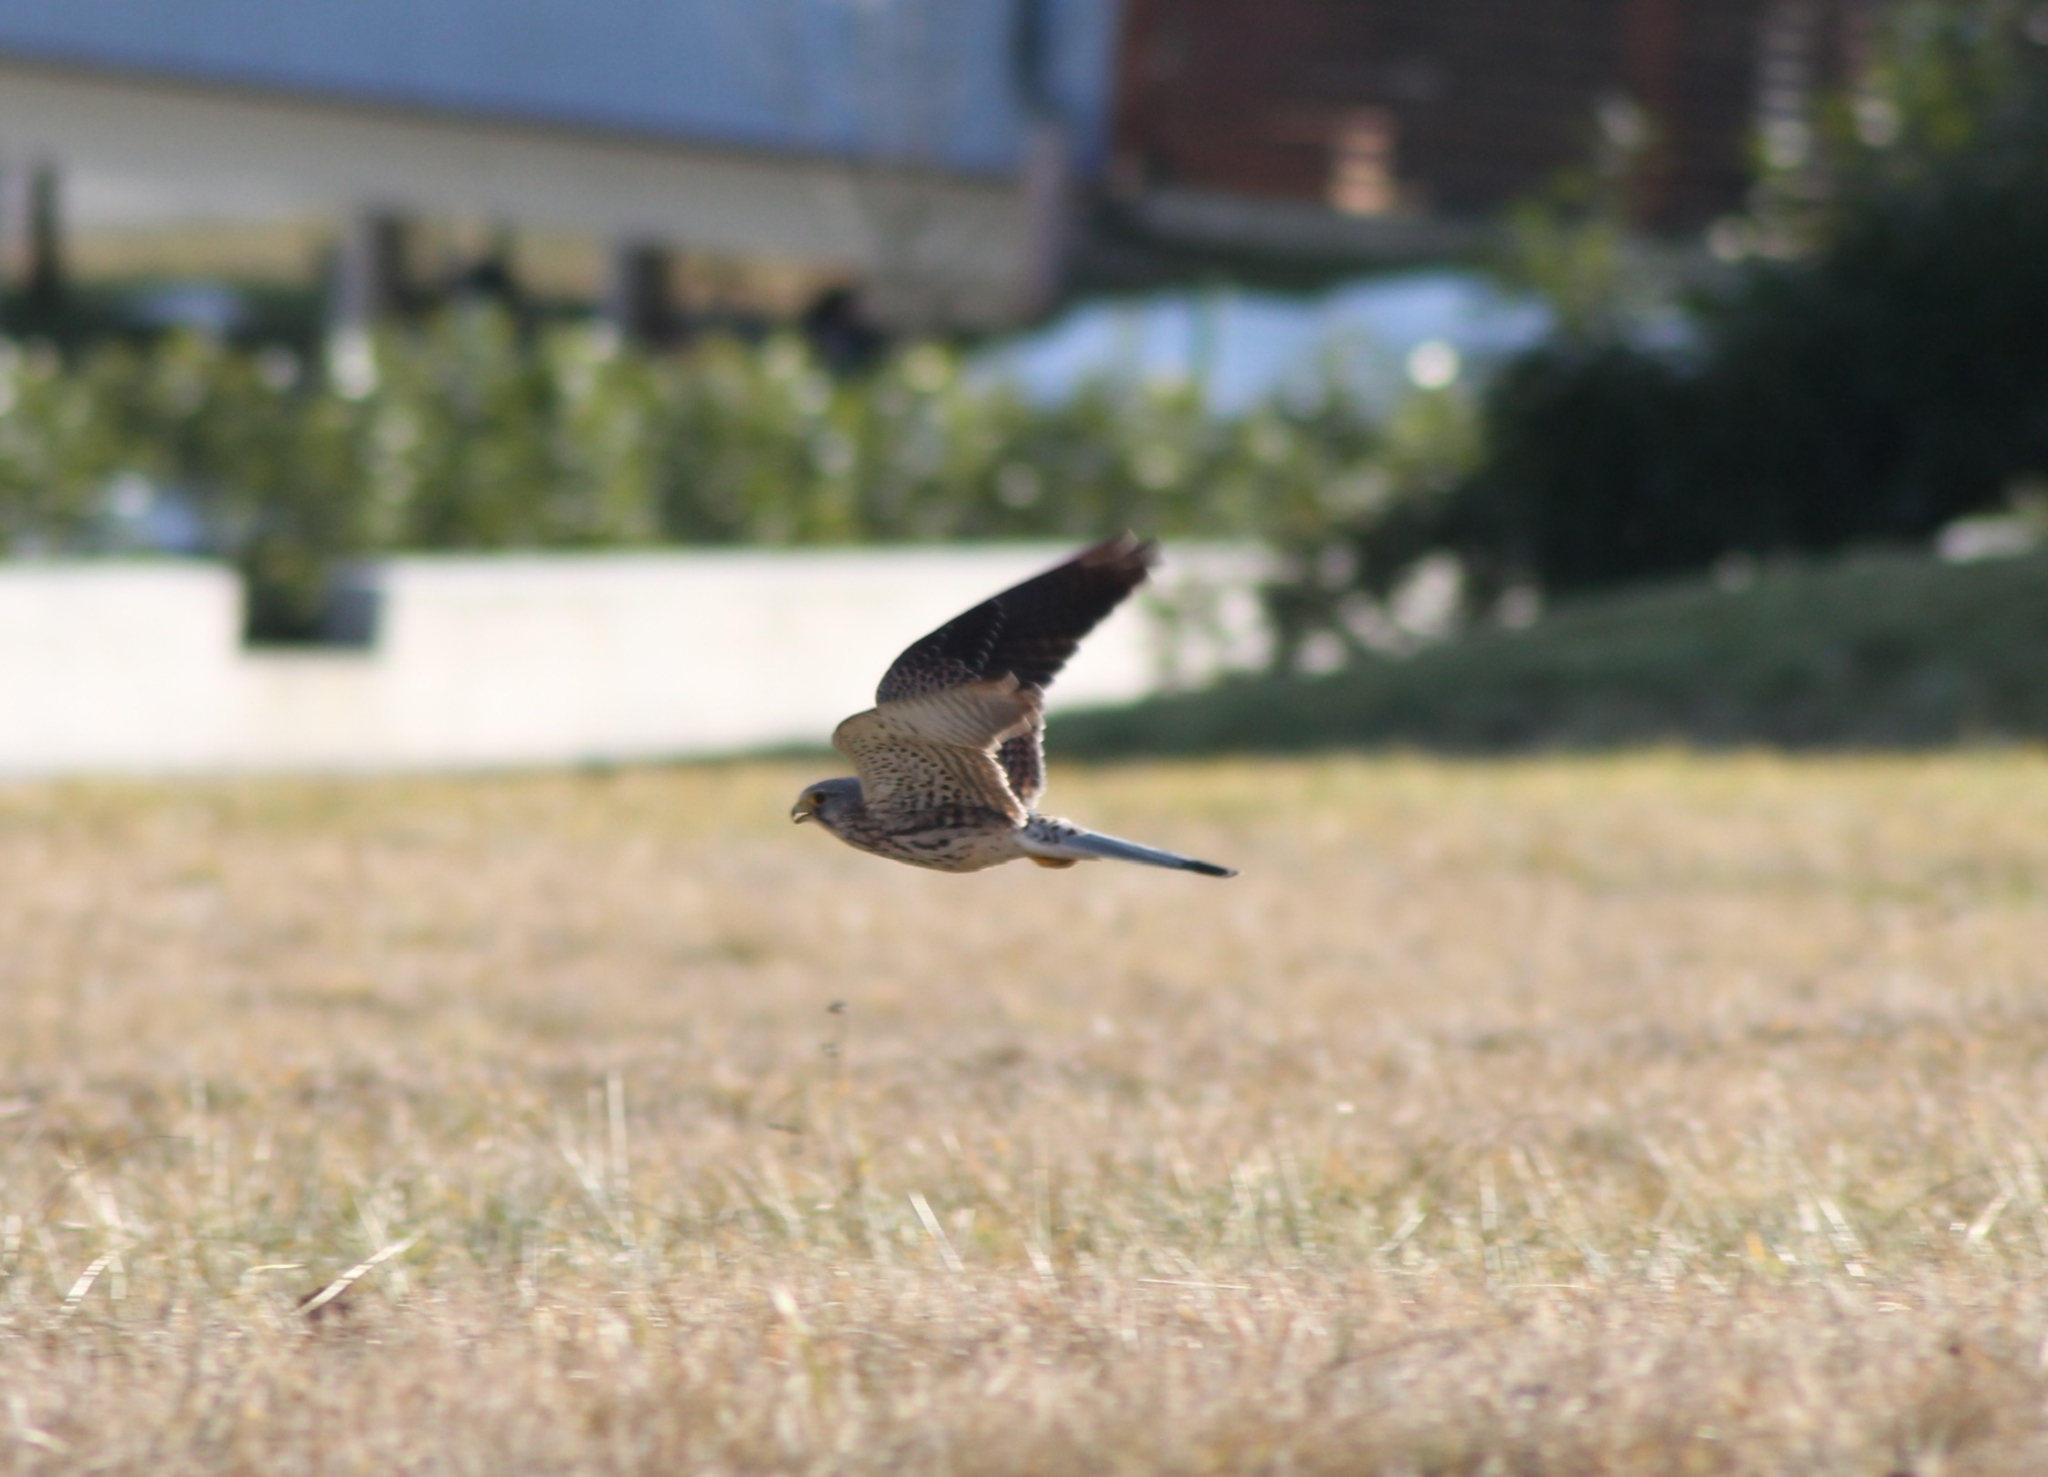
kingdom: Animalia
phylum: Chordata
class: Aves
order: Falconiformes
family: Falconidae
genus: Falco
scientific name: Falco tinnunculus
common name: Common kestrel
